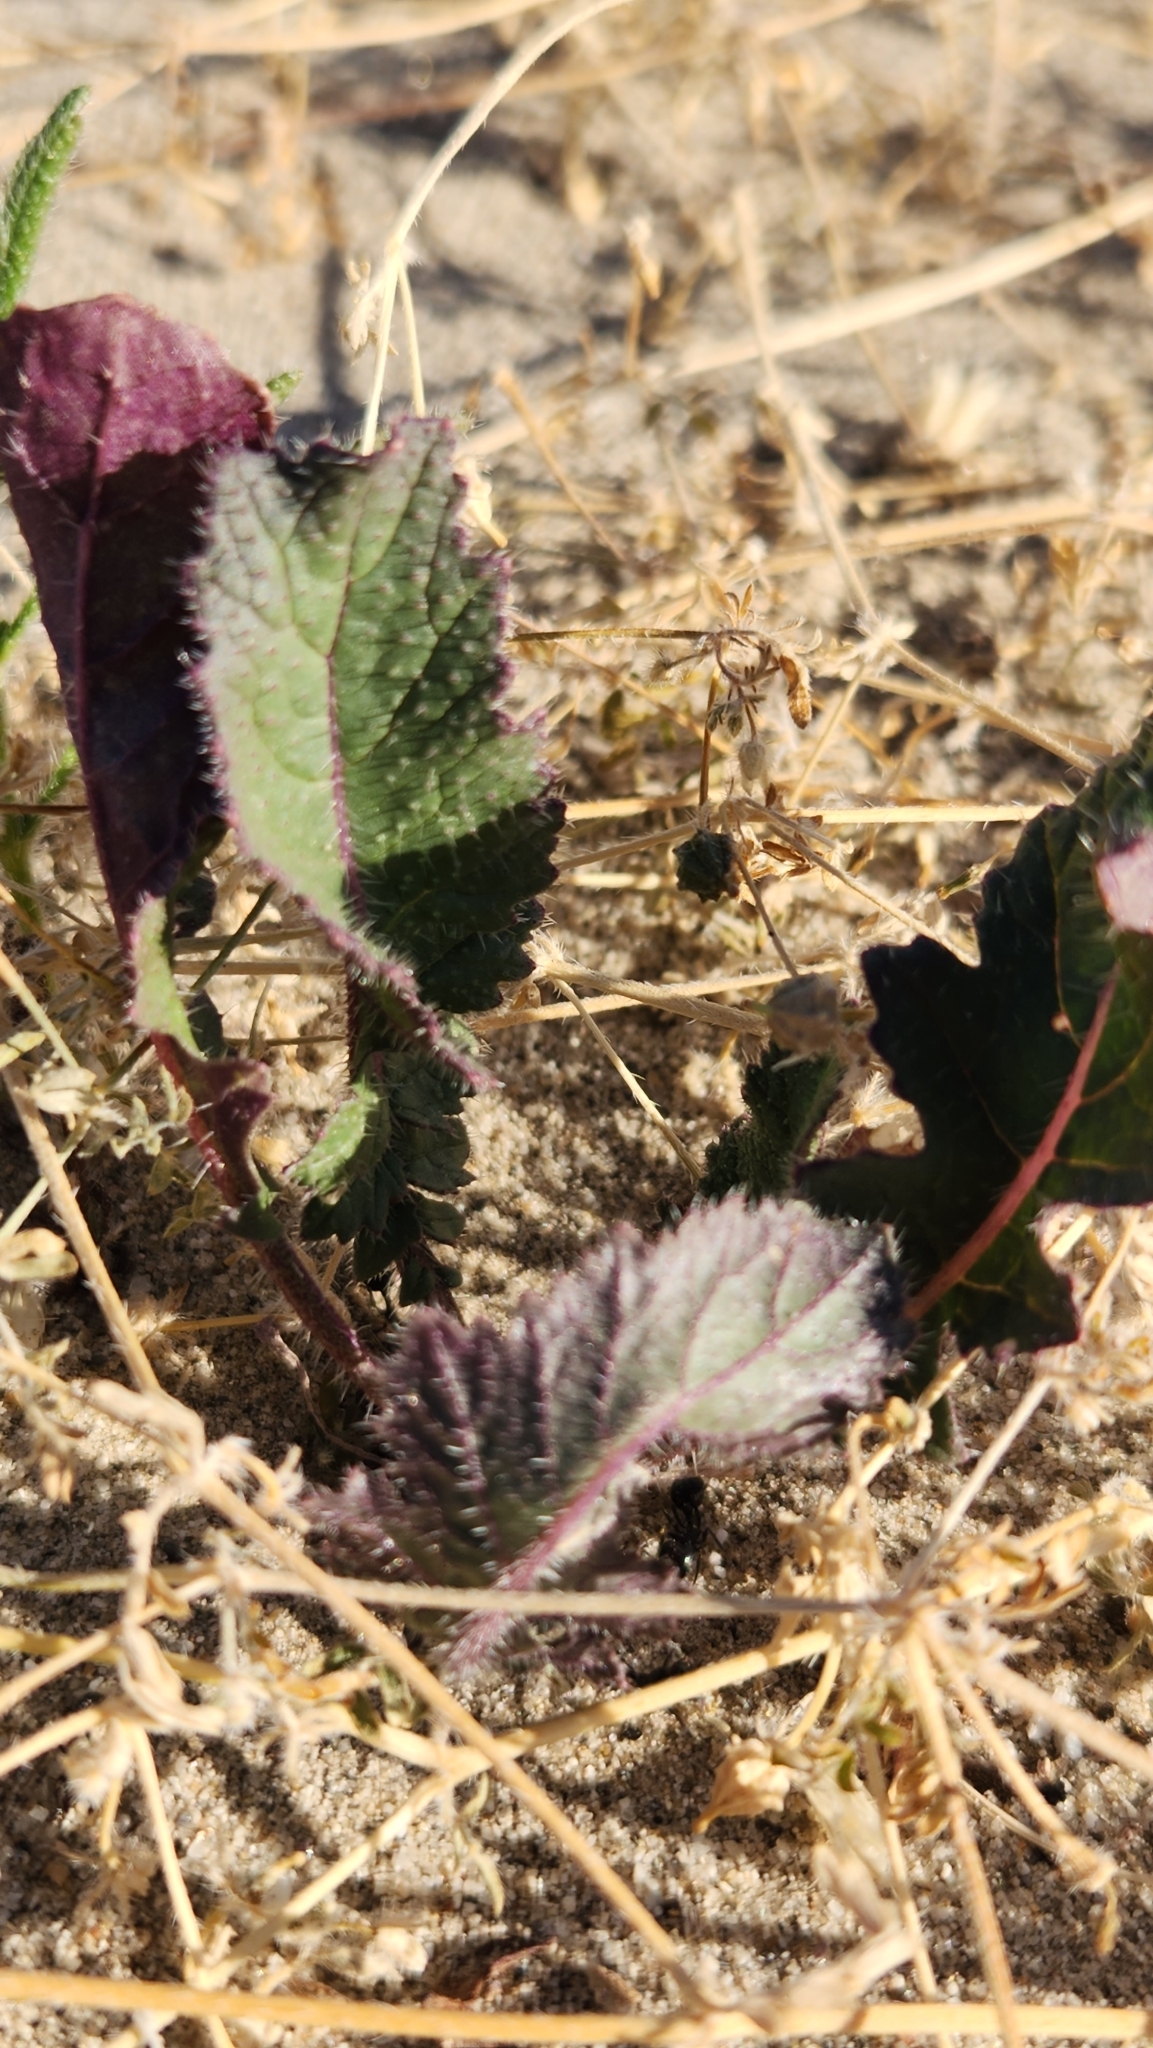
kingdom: Plantae
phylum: Tracheophyta
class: Magnoliopsida
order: Brassicales
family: Brassicaceae
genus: Brassica
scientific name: Brassica tournefortii
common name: Pale cabbage
